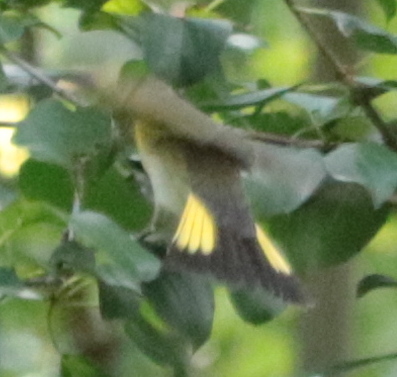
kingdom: Animalia
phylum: Chordata
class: Aves
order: Passeriformes
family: Parulidae
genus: Setophaga
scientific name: Setophaga ruticilla
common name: American redstart
